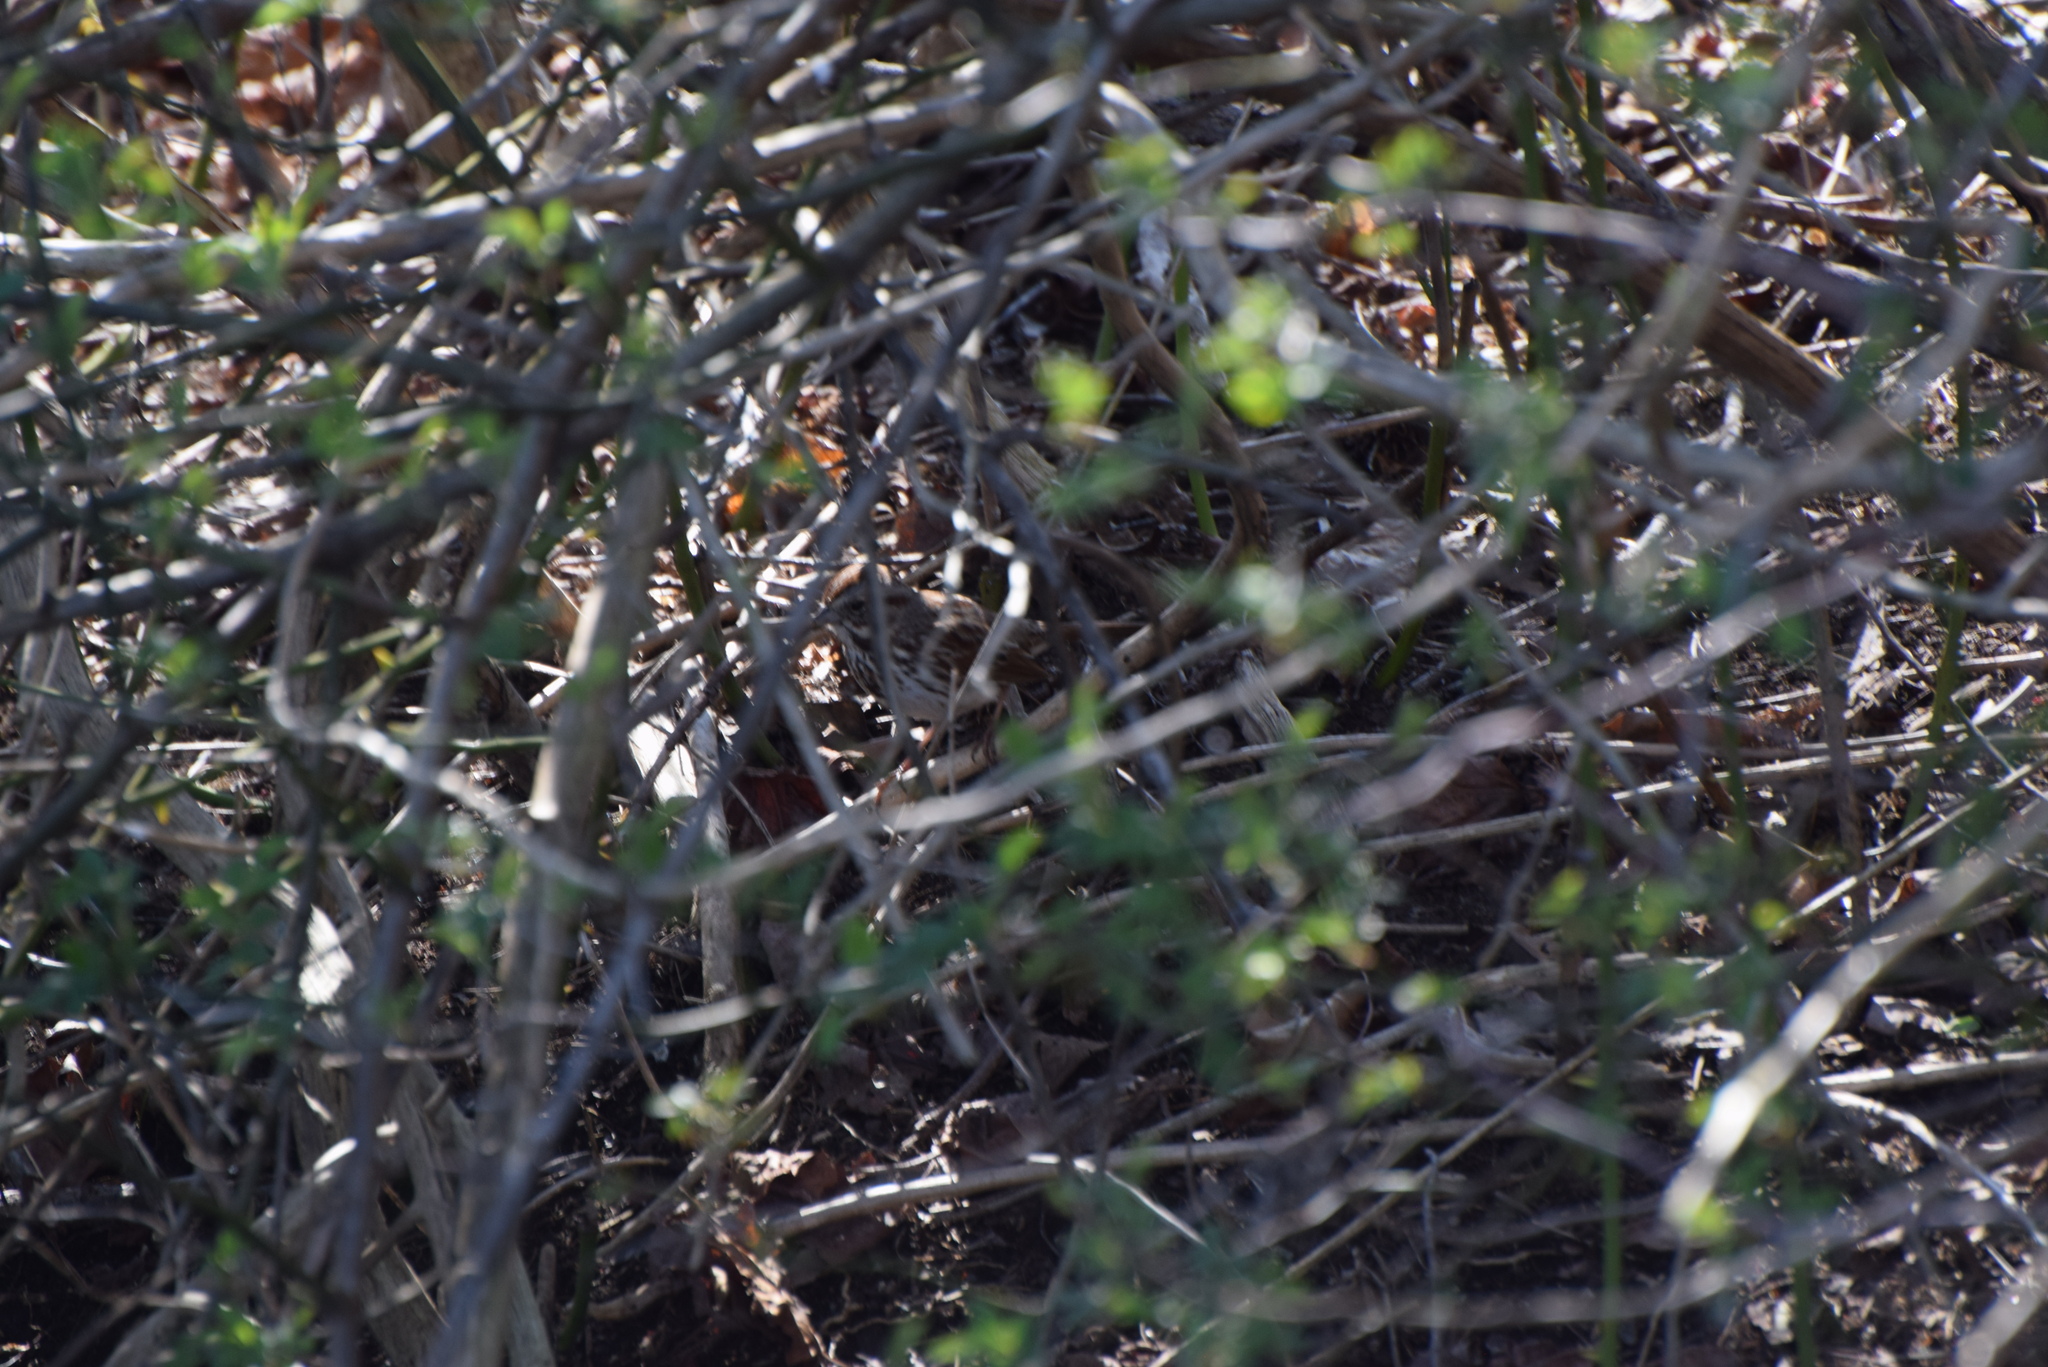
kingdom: Animalia
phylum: Chordata
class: Aves
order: Passeriformes
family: Passerellidae
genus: Melospiza
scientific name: Melospiza melodia
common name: Song sparrow
